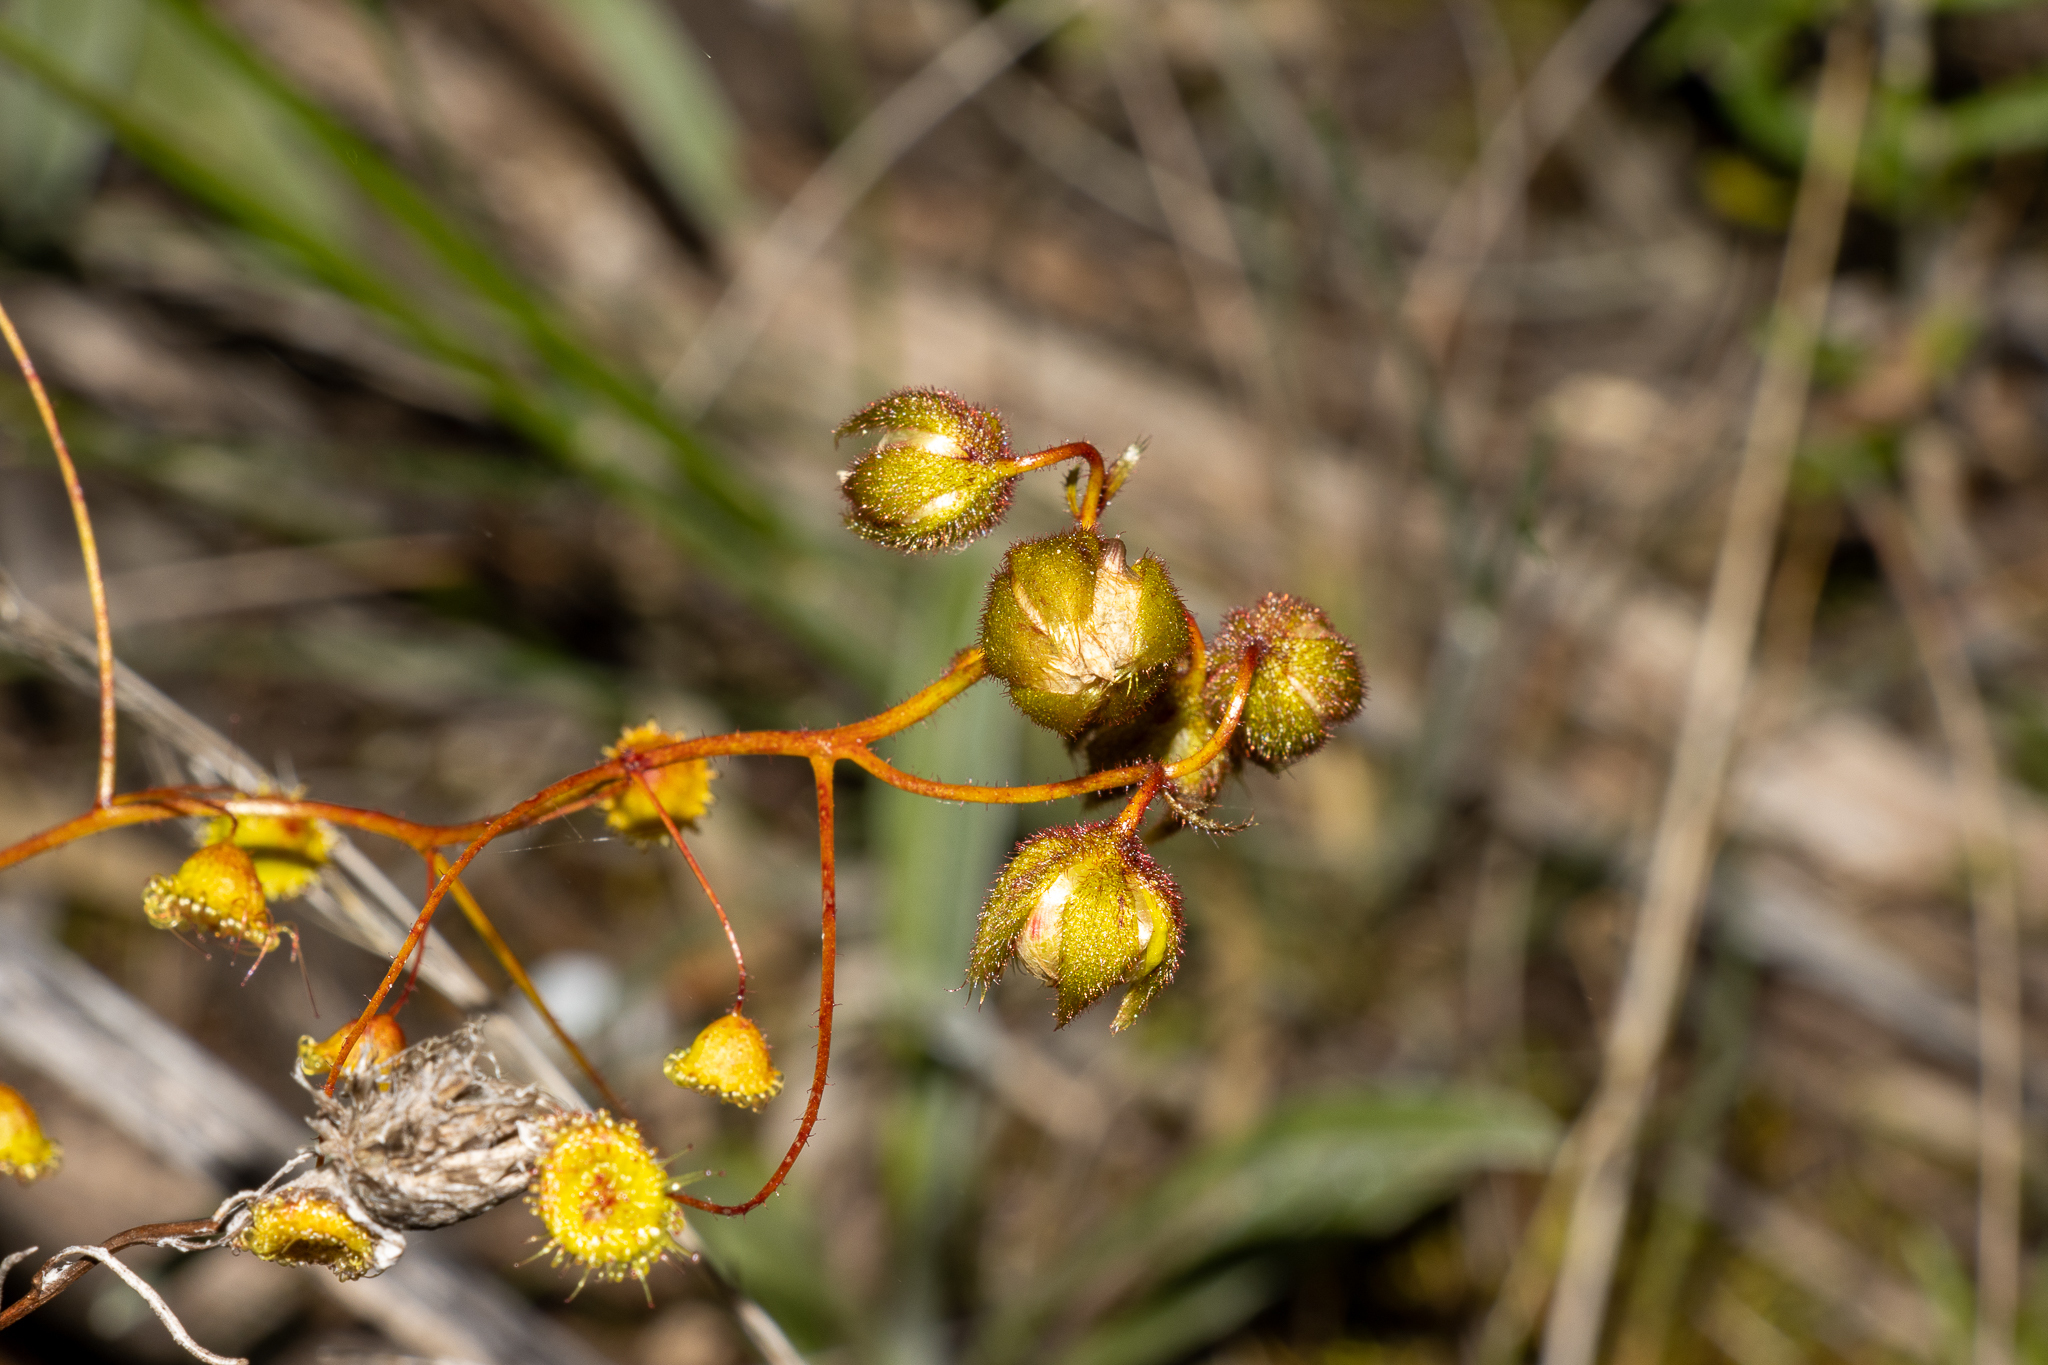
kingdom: Plantae
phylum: Tracheophyta
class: Magnoliopsida
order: Caryophyllales
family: Droseraceae
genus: Drosera
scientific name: Drosera planchonii
